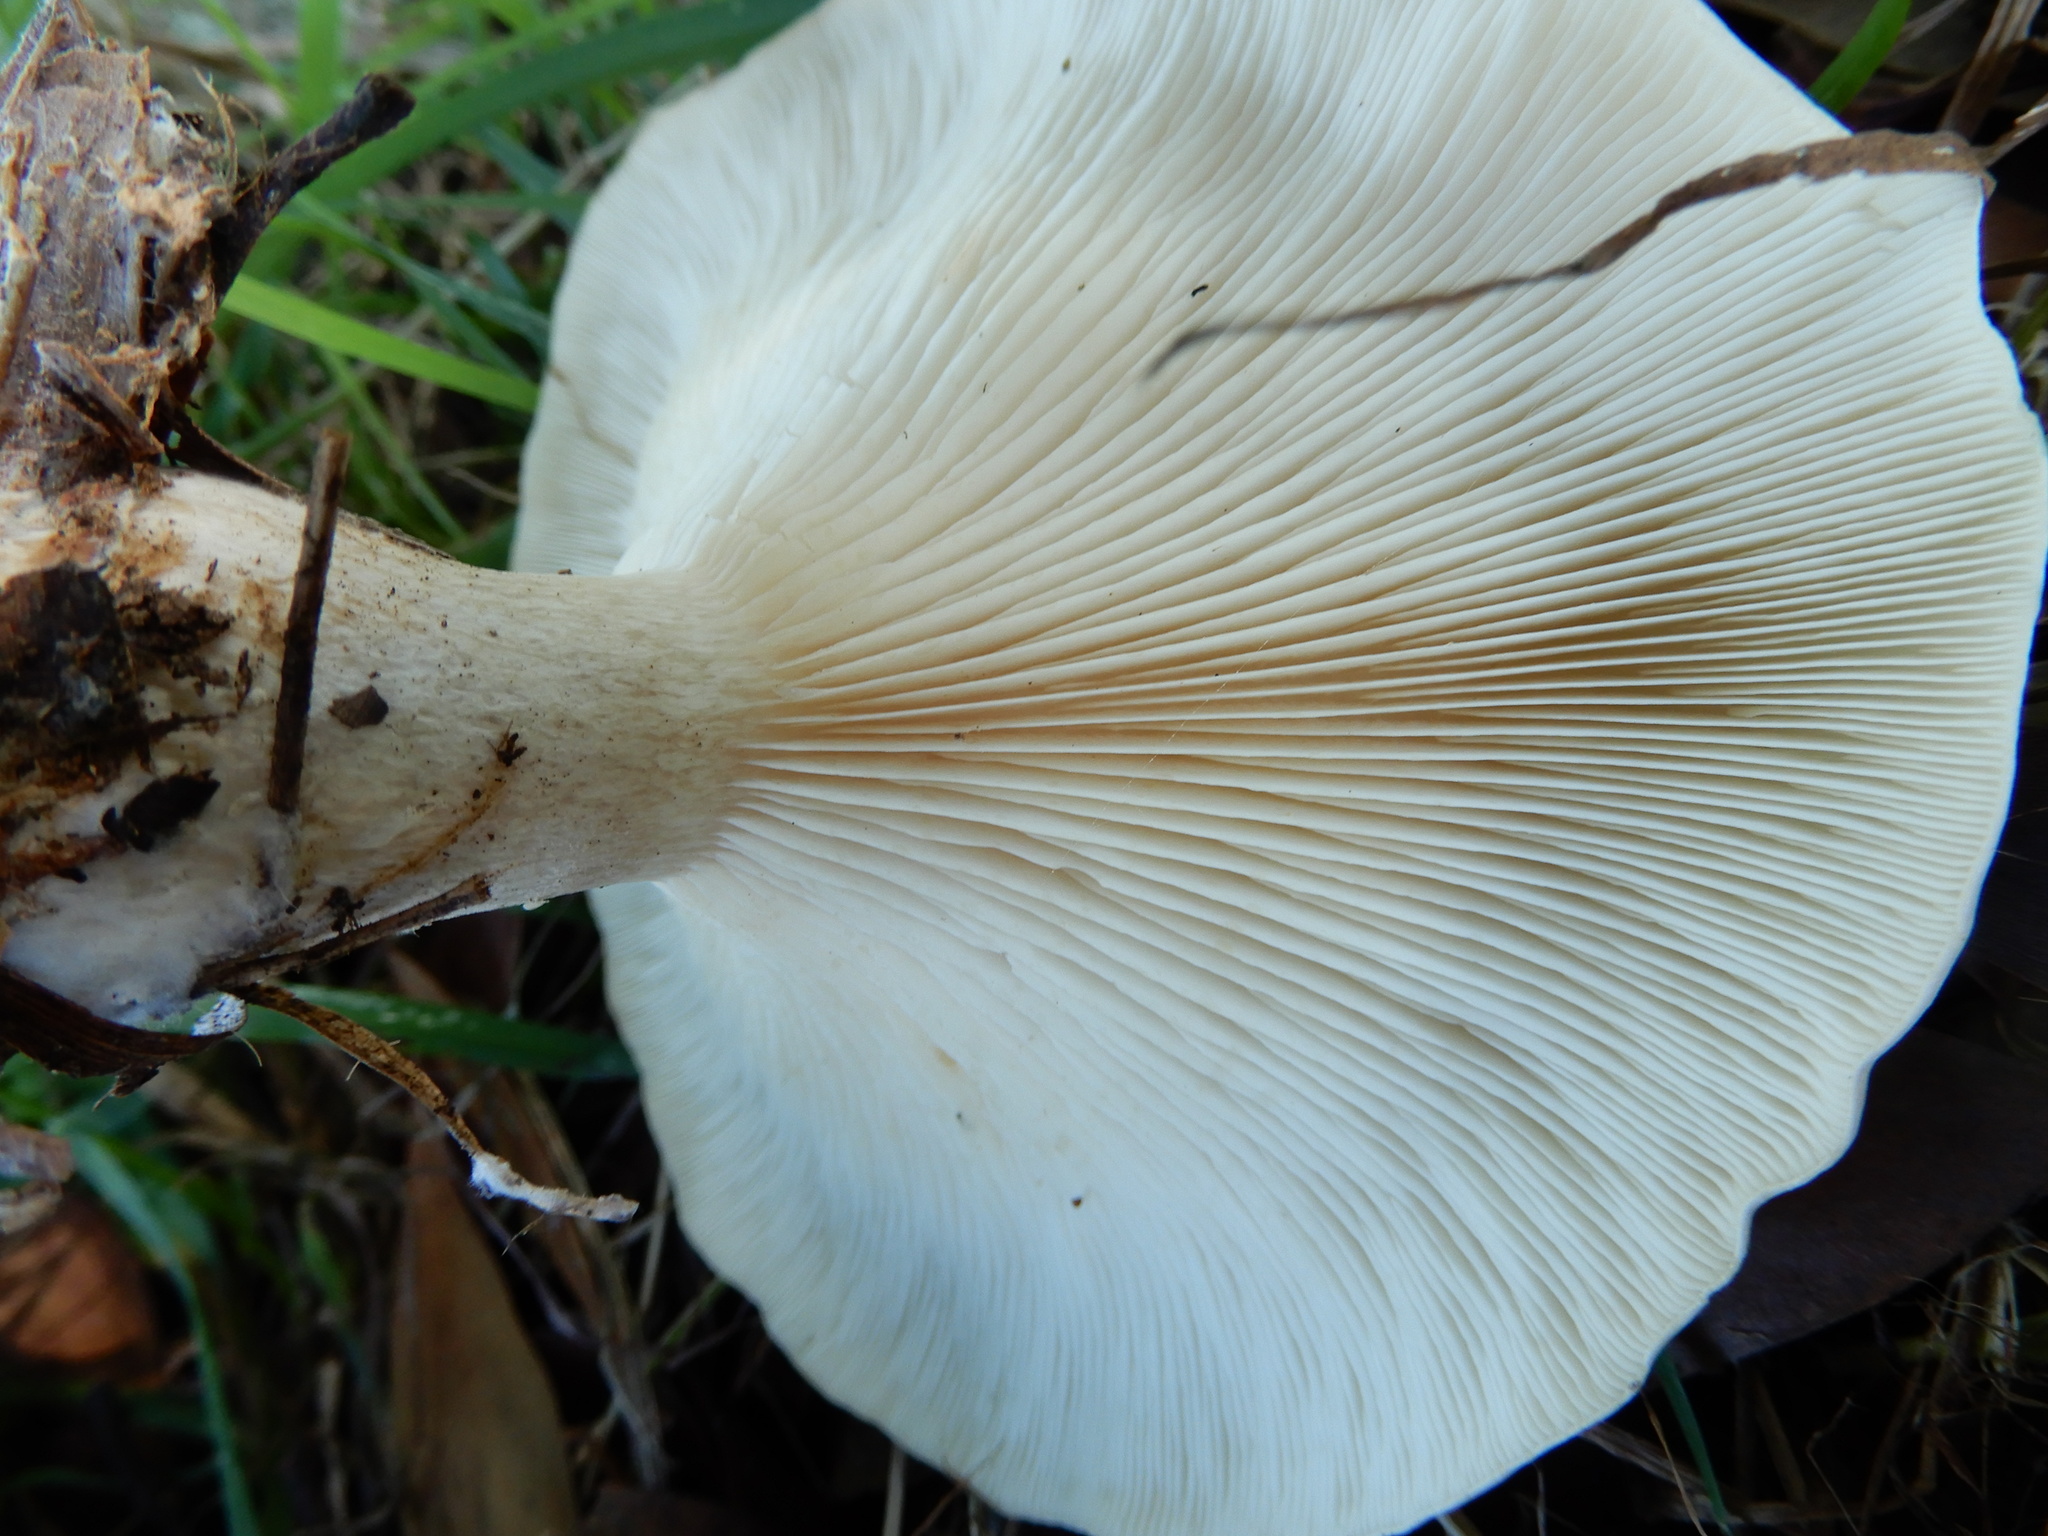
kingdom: Fungi
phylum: Basidiomycota
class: Agaricomycetes
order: Agaricales
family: Tricholomataceae
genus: Clitocybe
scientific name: Clitocybe nebularis
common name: Clouded agaric
